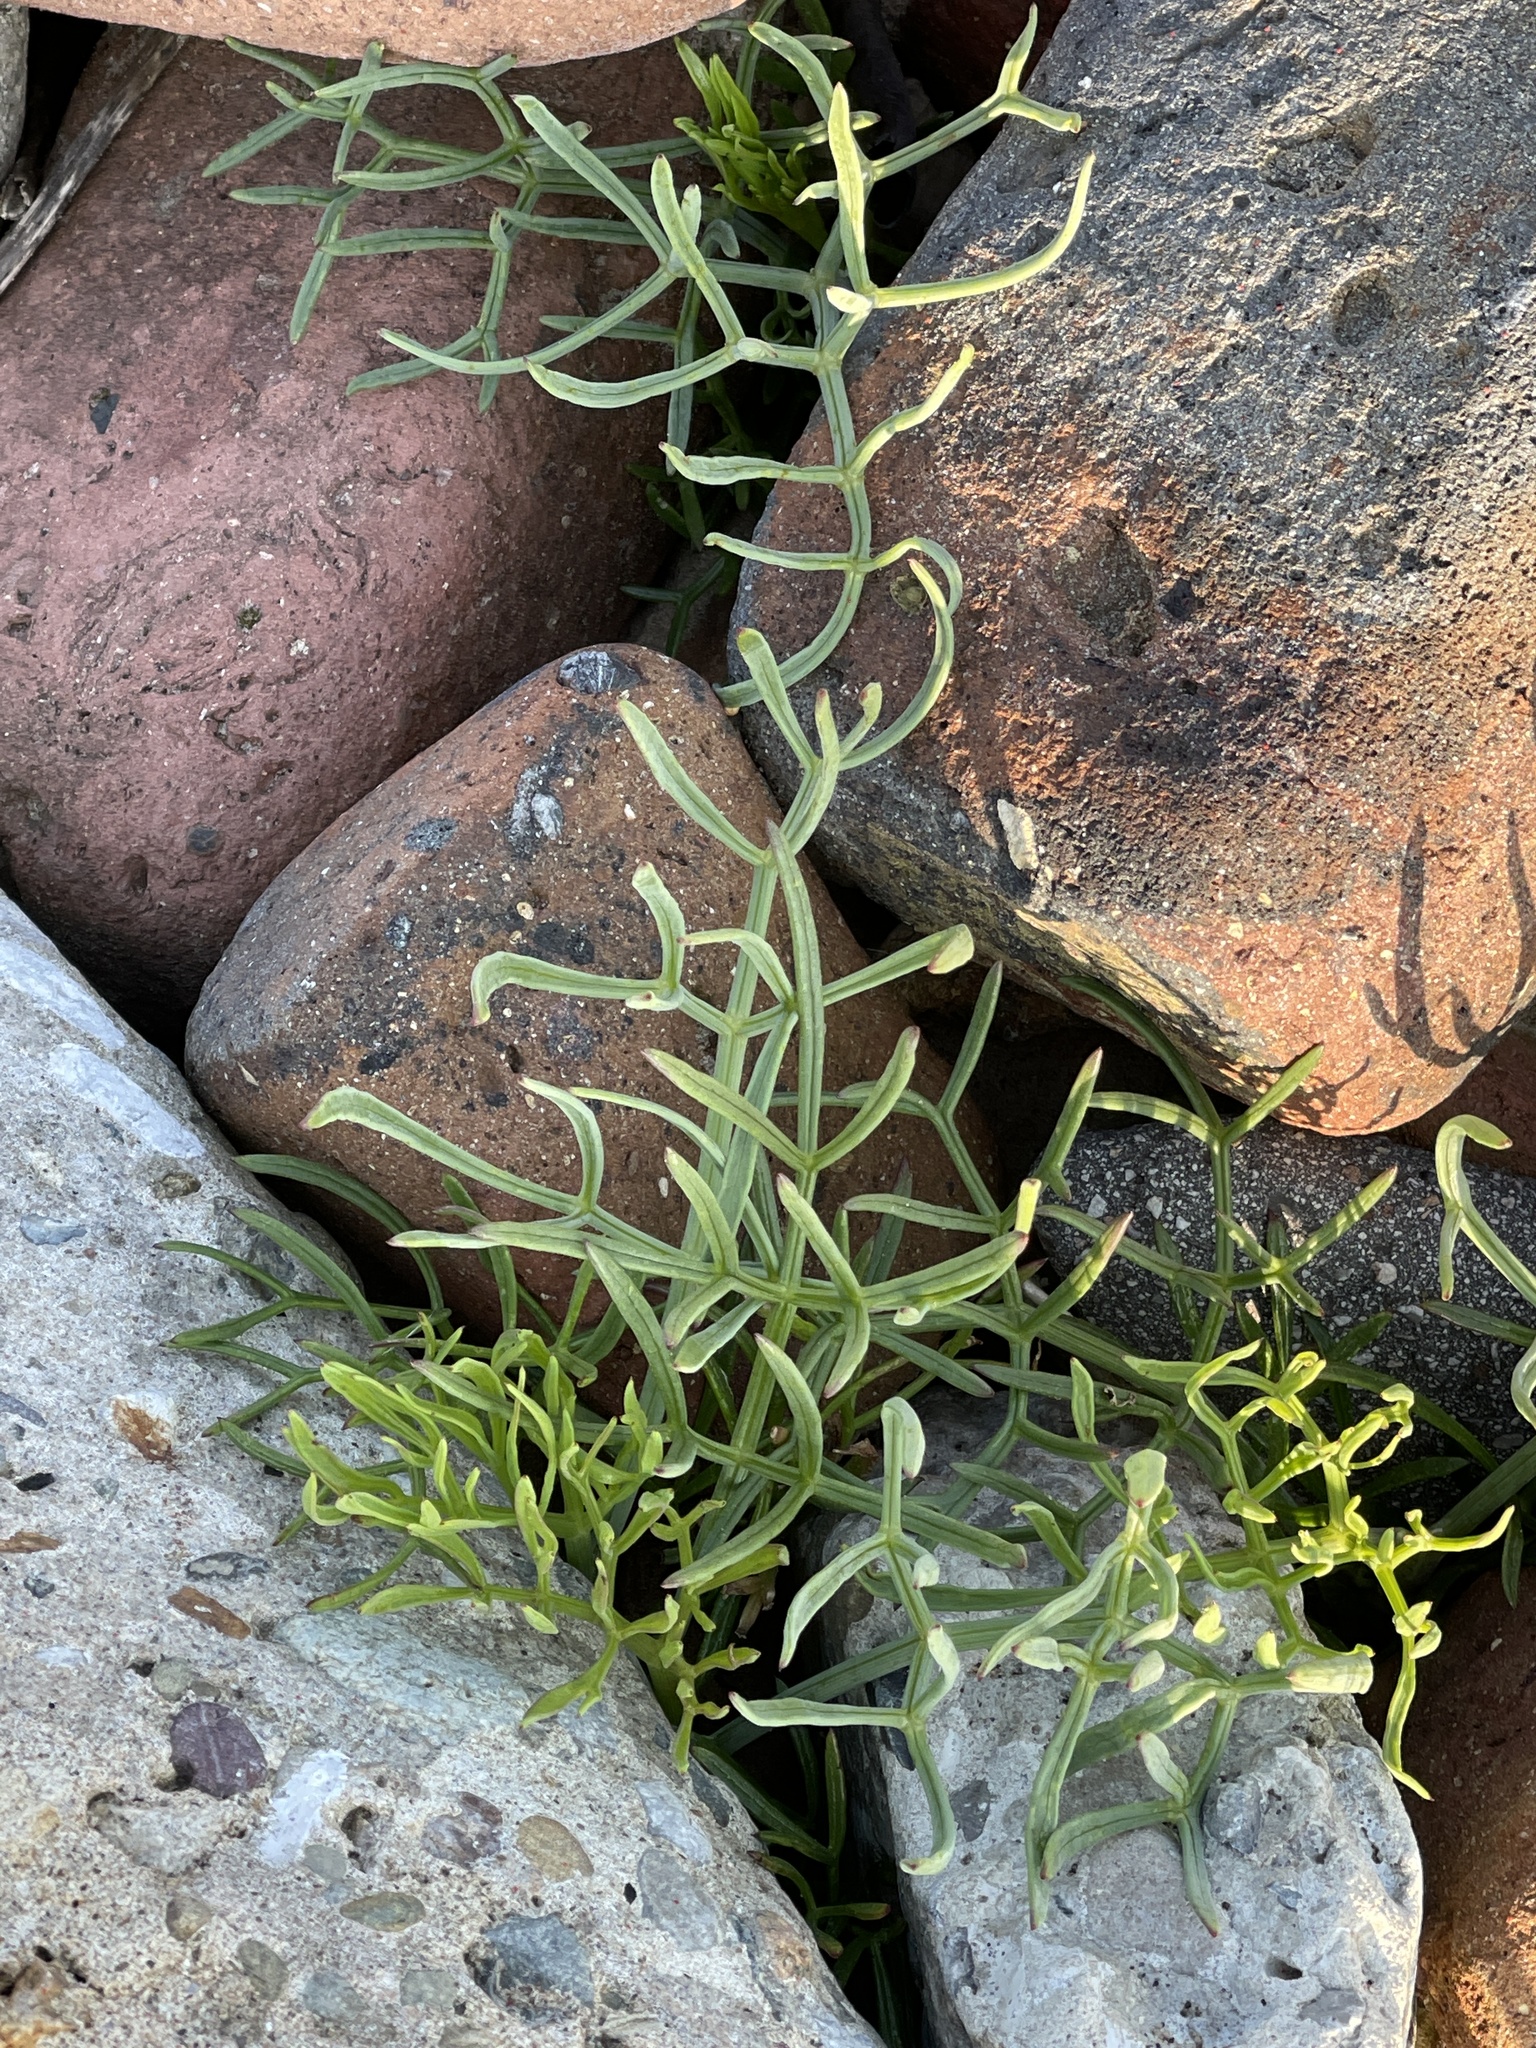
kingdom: Plantae
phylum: Tracheophyta
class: Magnoliopsida
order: Apiales
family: Apiaceae
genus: Crithmum
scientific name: Crithmum maritimum
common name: Rock samphire
